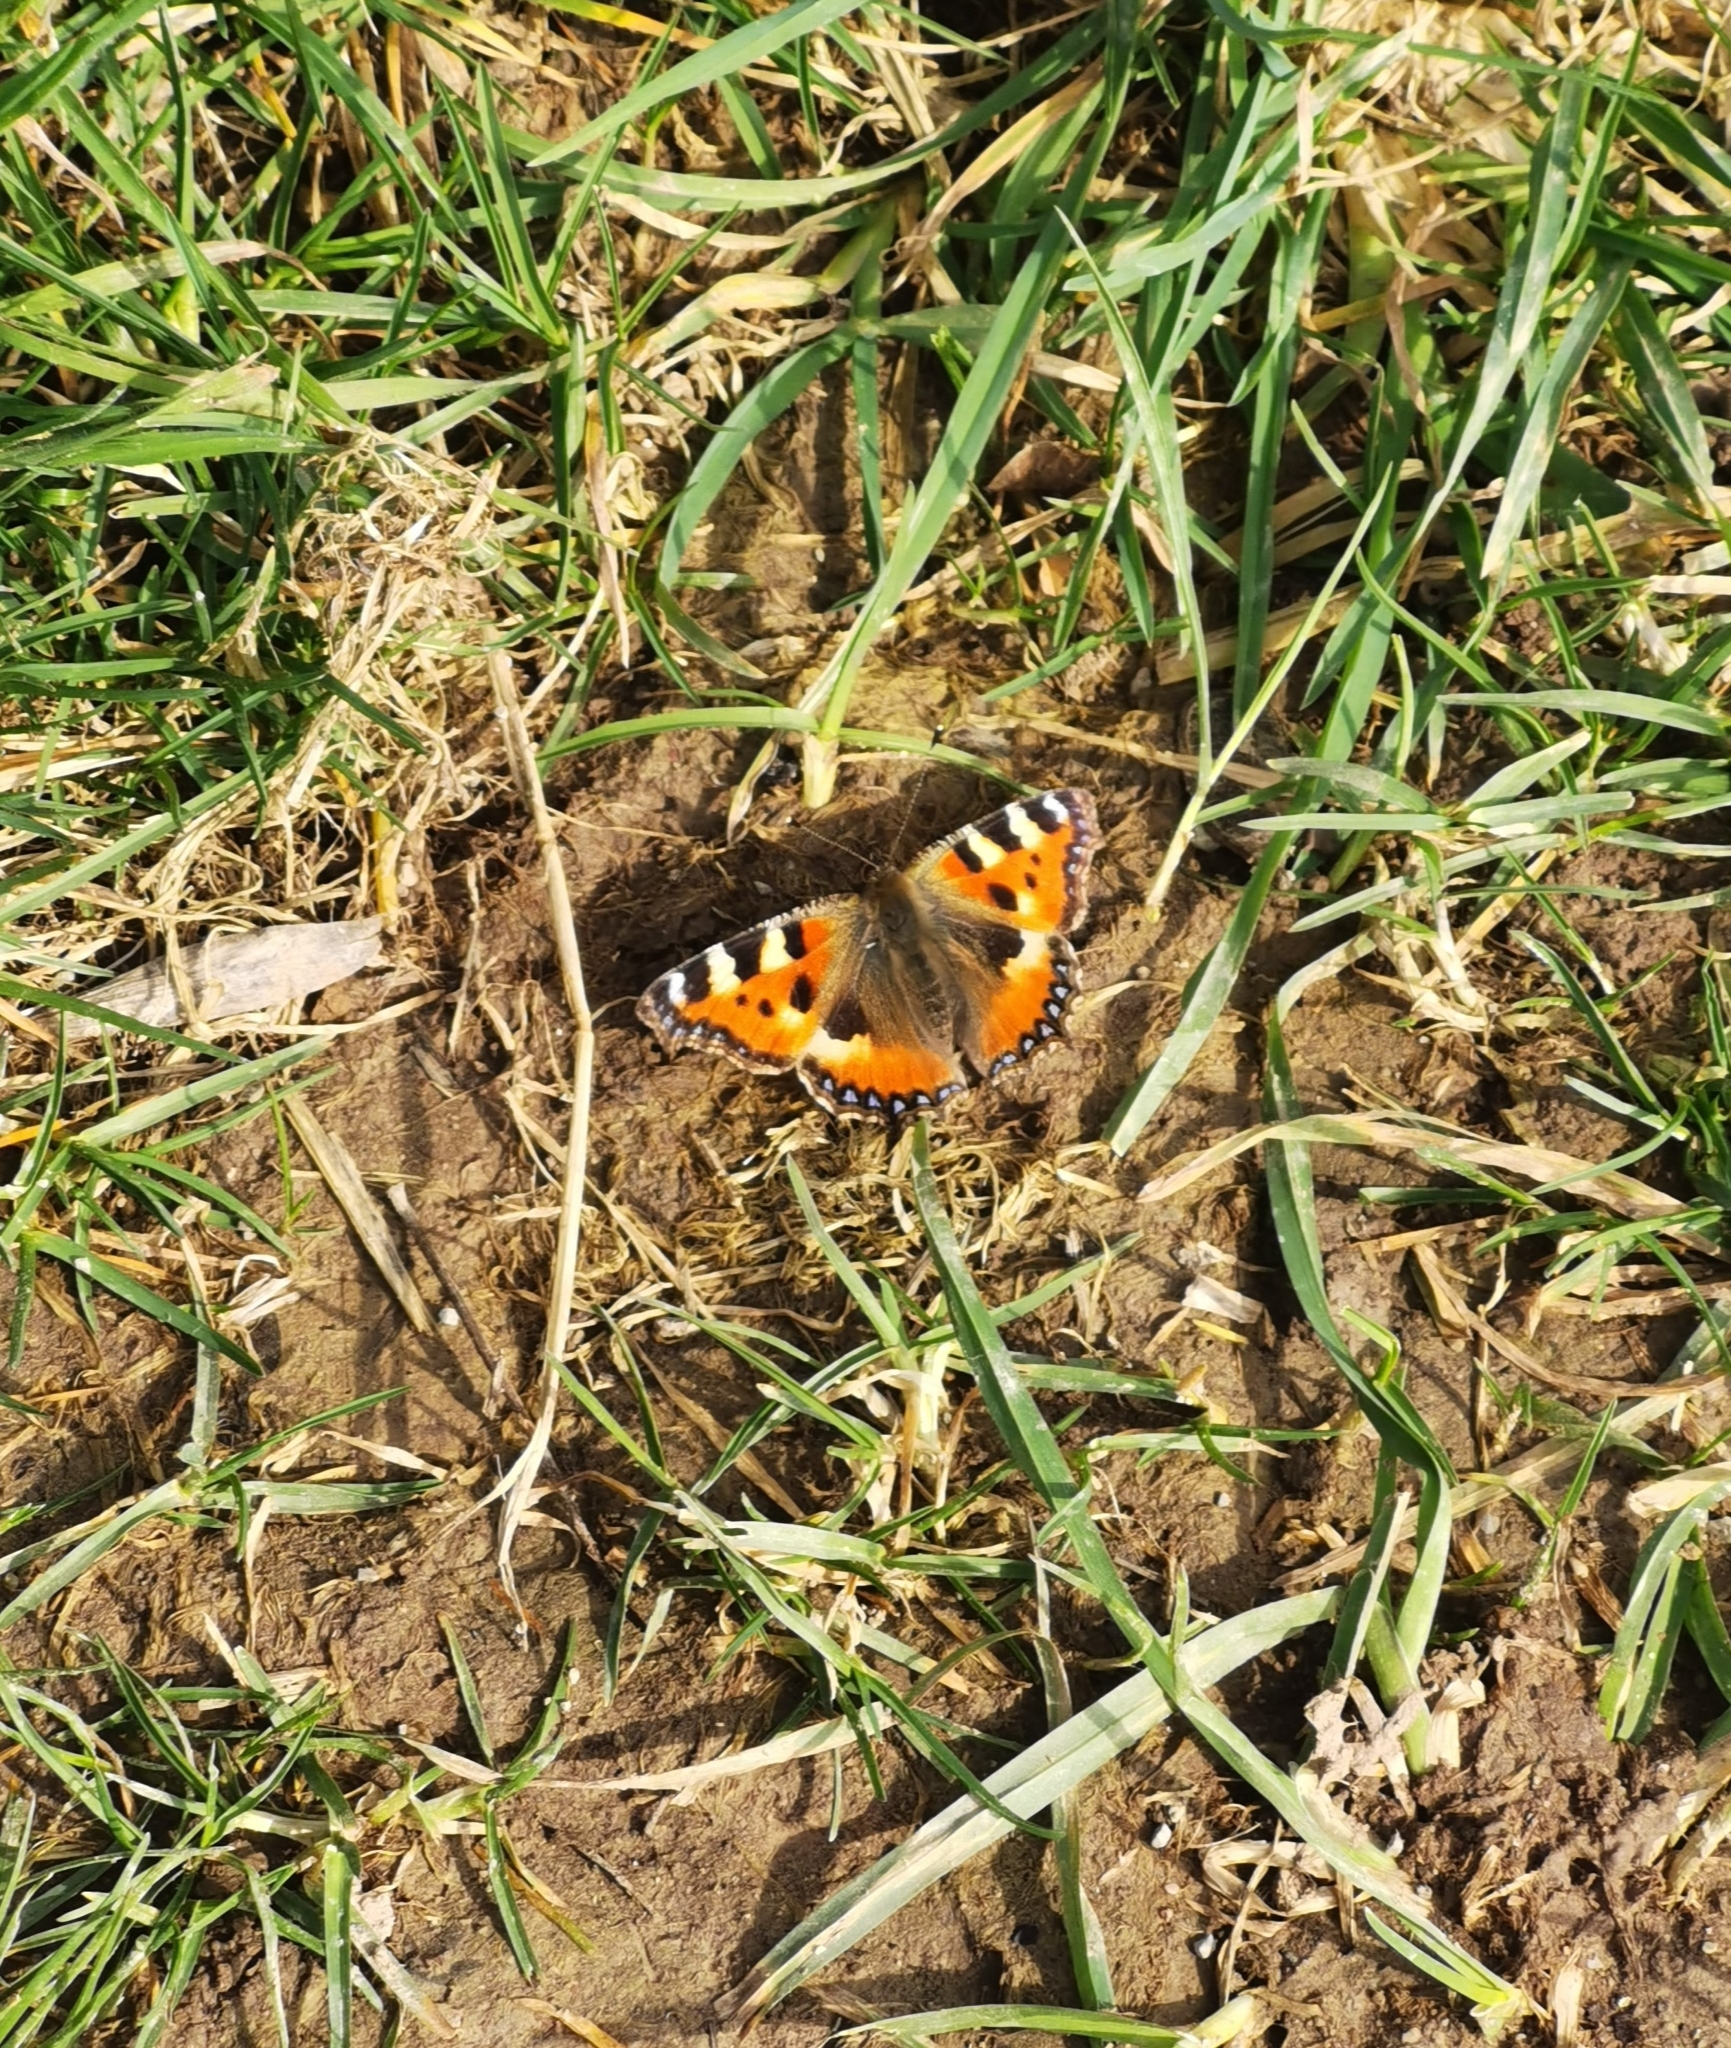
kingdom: Animalia
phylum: Arthropoda
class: Insecta
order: Lepidoptera
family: Nymphalidae
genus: Aglais
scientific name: Aglais urticae
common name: Small tortoiseshell
